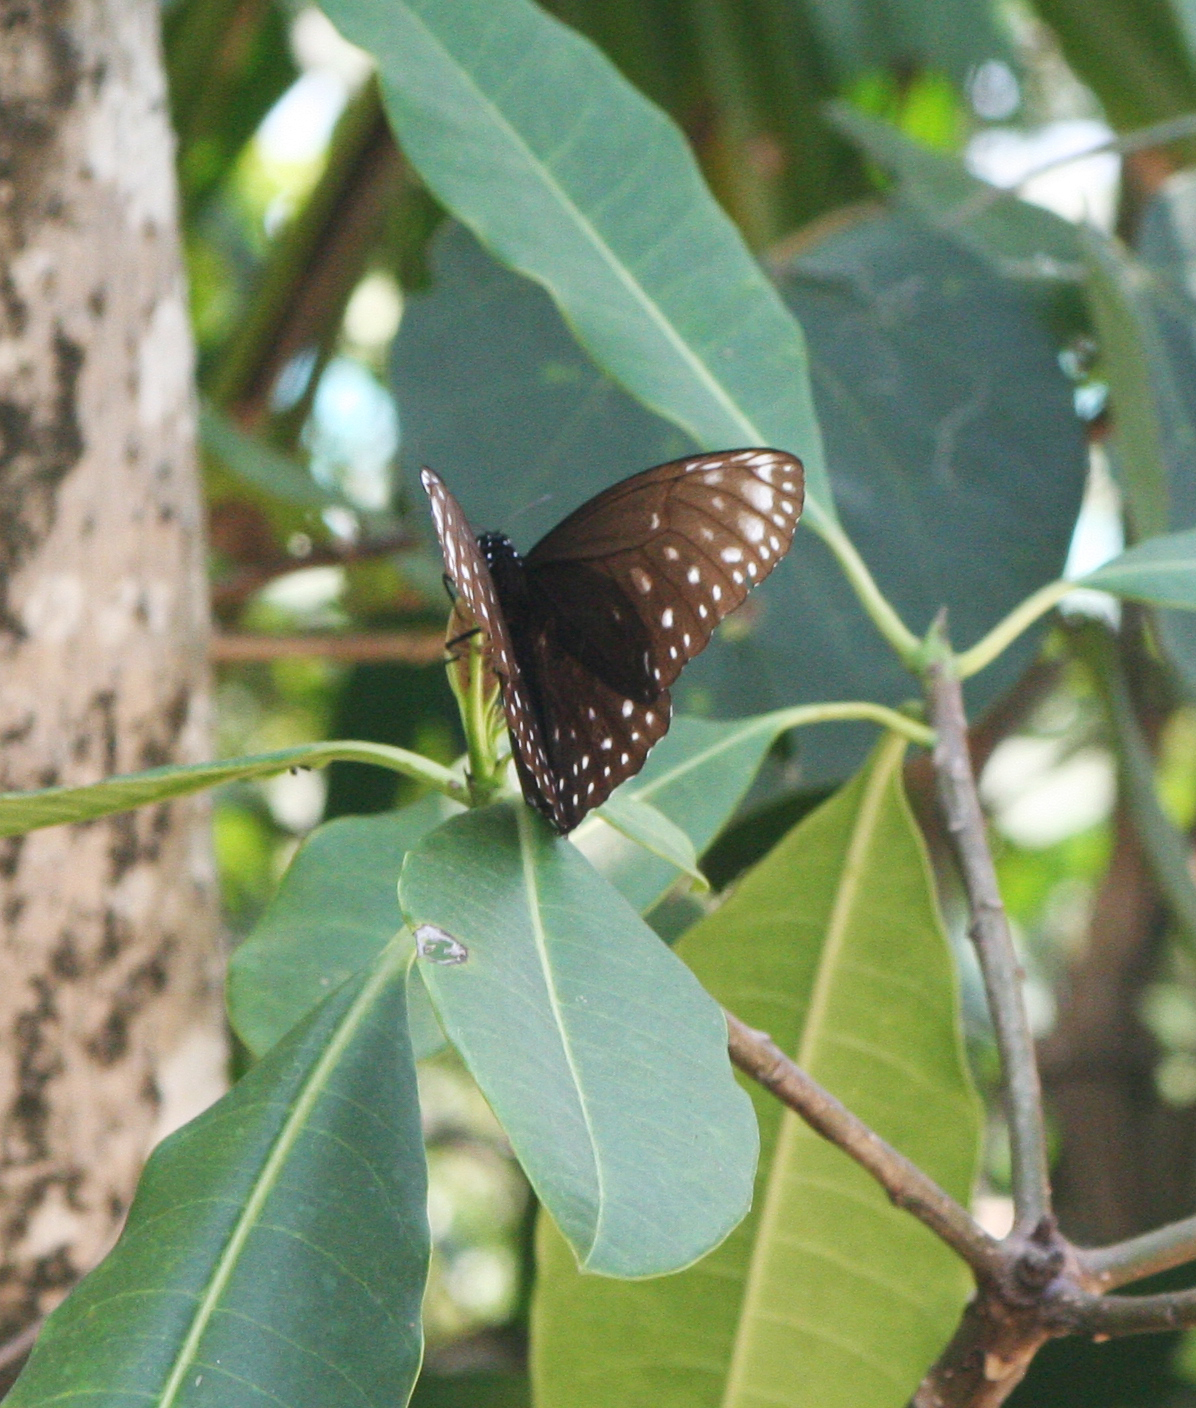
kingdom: Animalia
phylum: Arthropoda
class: Insecta
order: Lepidoptera
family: Nymphalidae
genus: Euploea
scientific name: Euploea phaenareta
